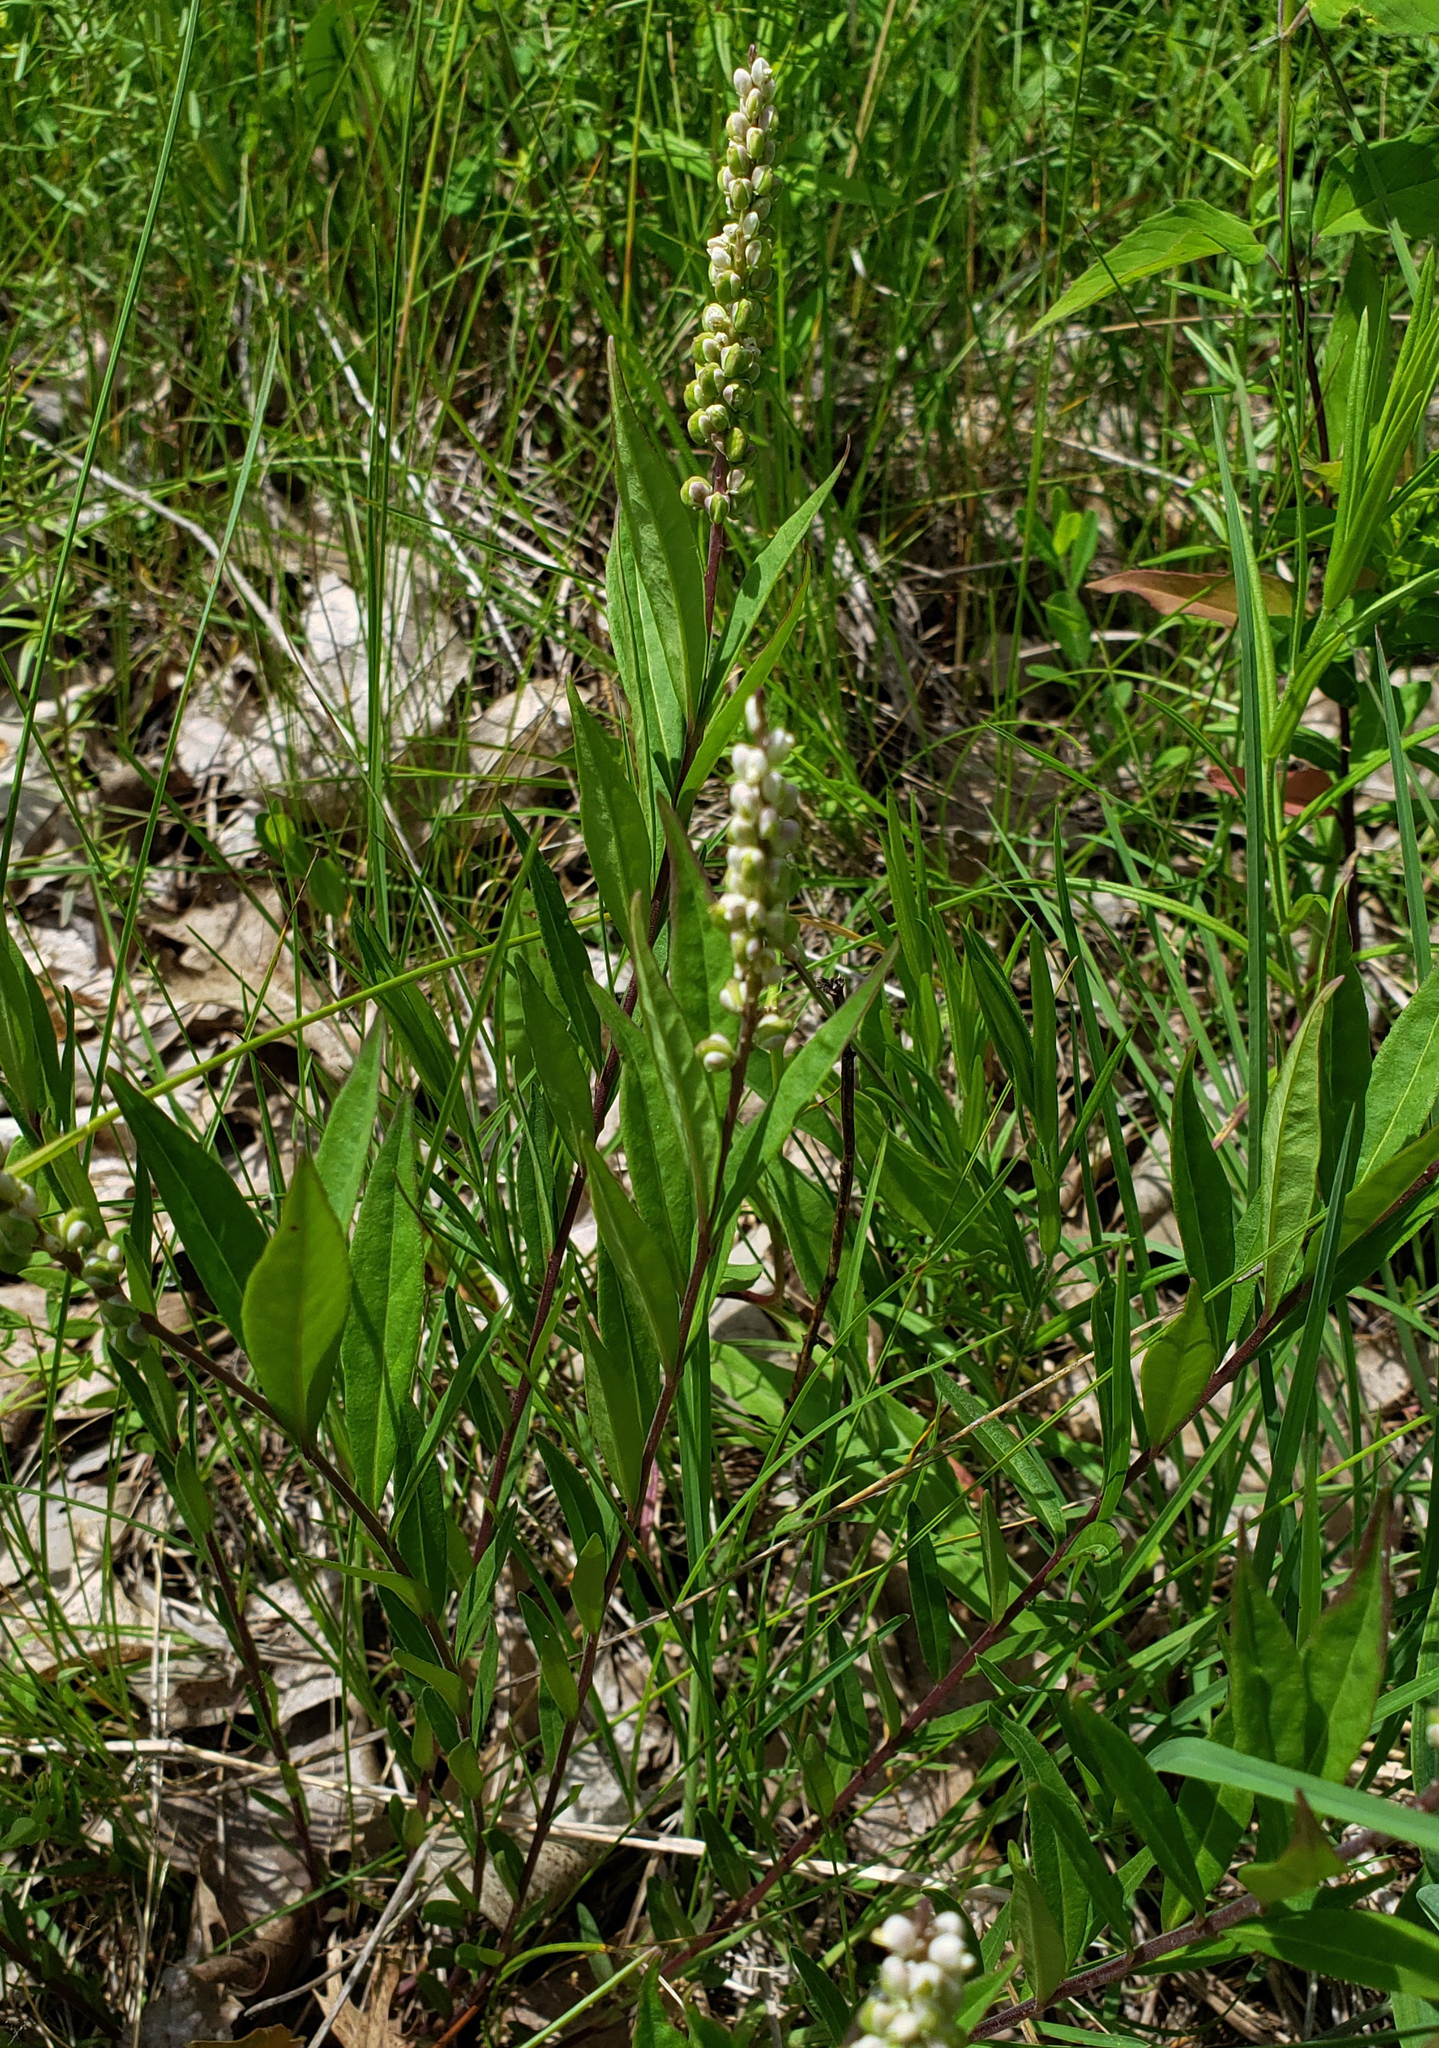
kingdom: Plantae
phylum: Tracheophyta
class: Magnoliopsida
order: Fabales
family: Polygalaceae
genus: Polygala
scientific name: Polygala senega
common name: Seneca snakeroot
